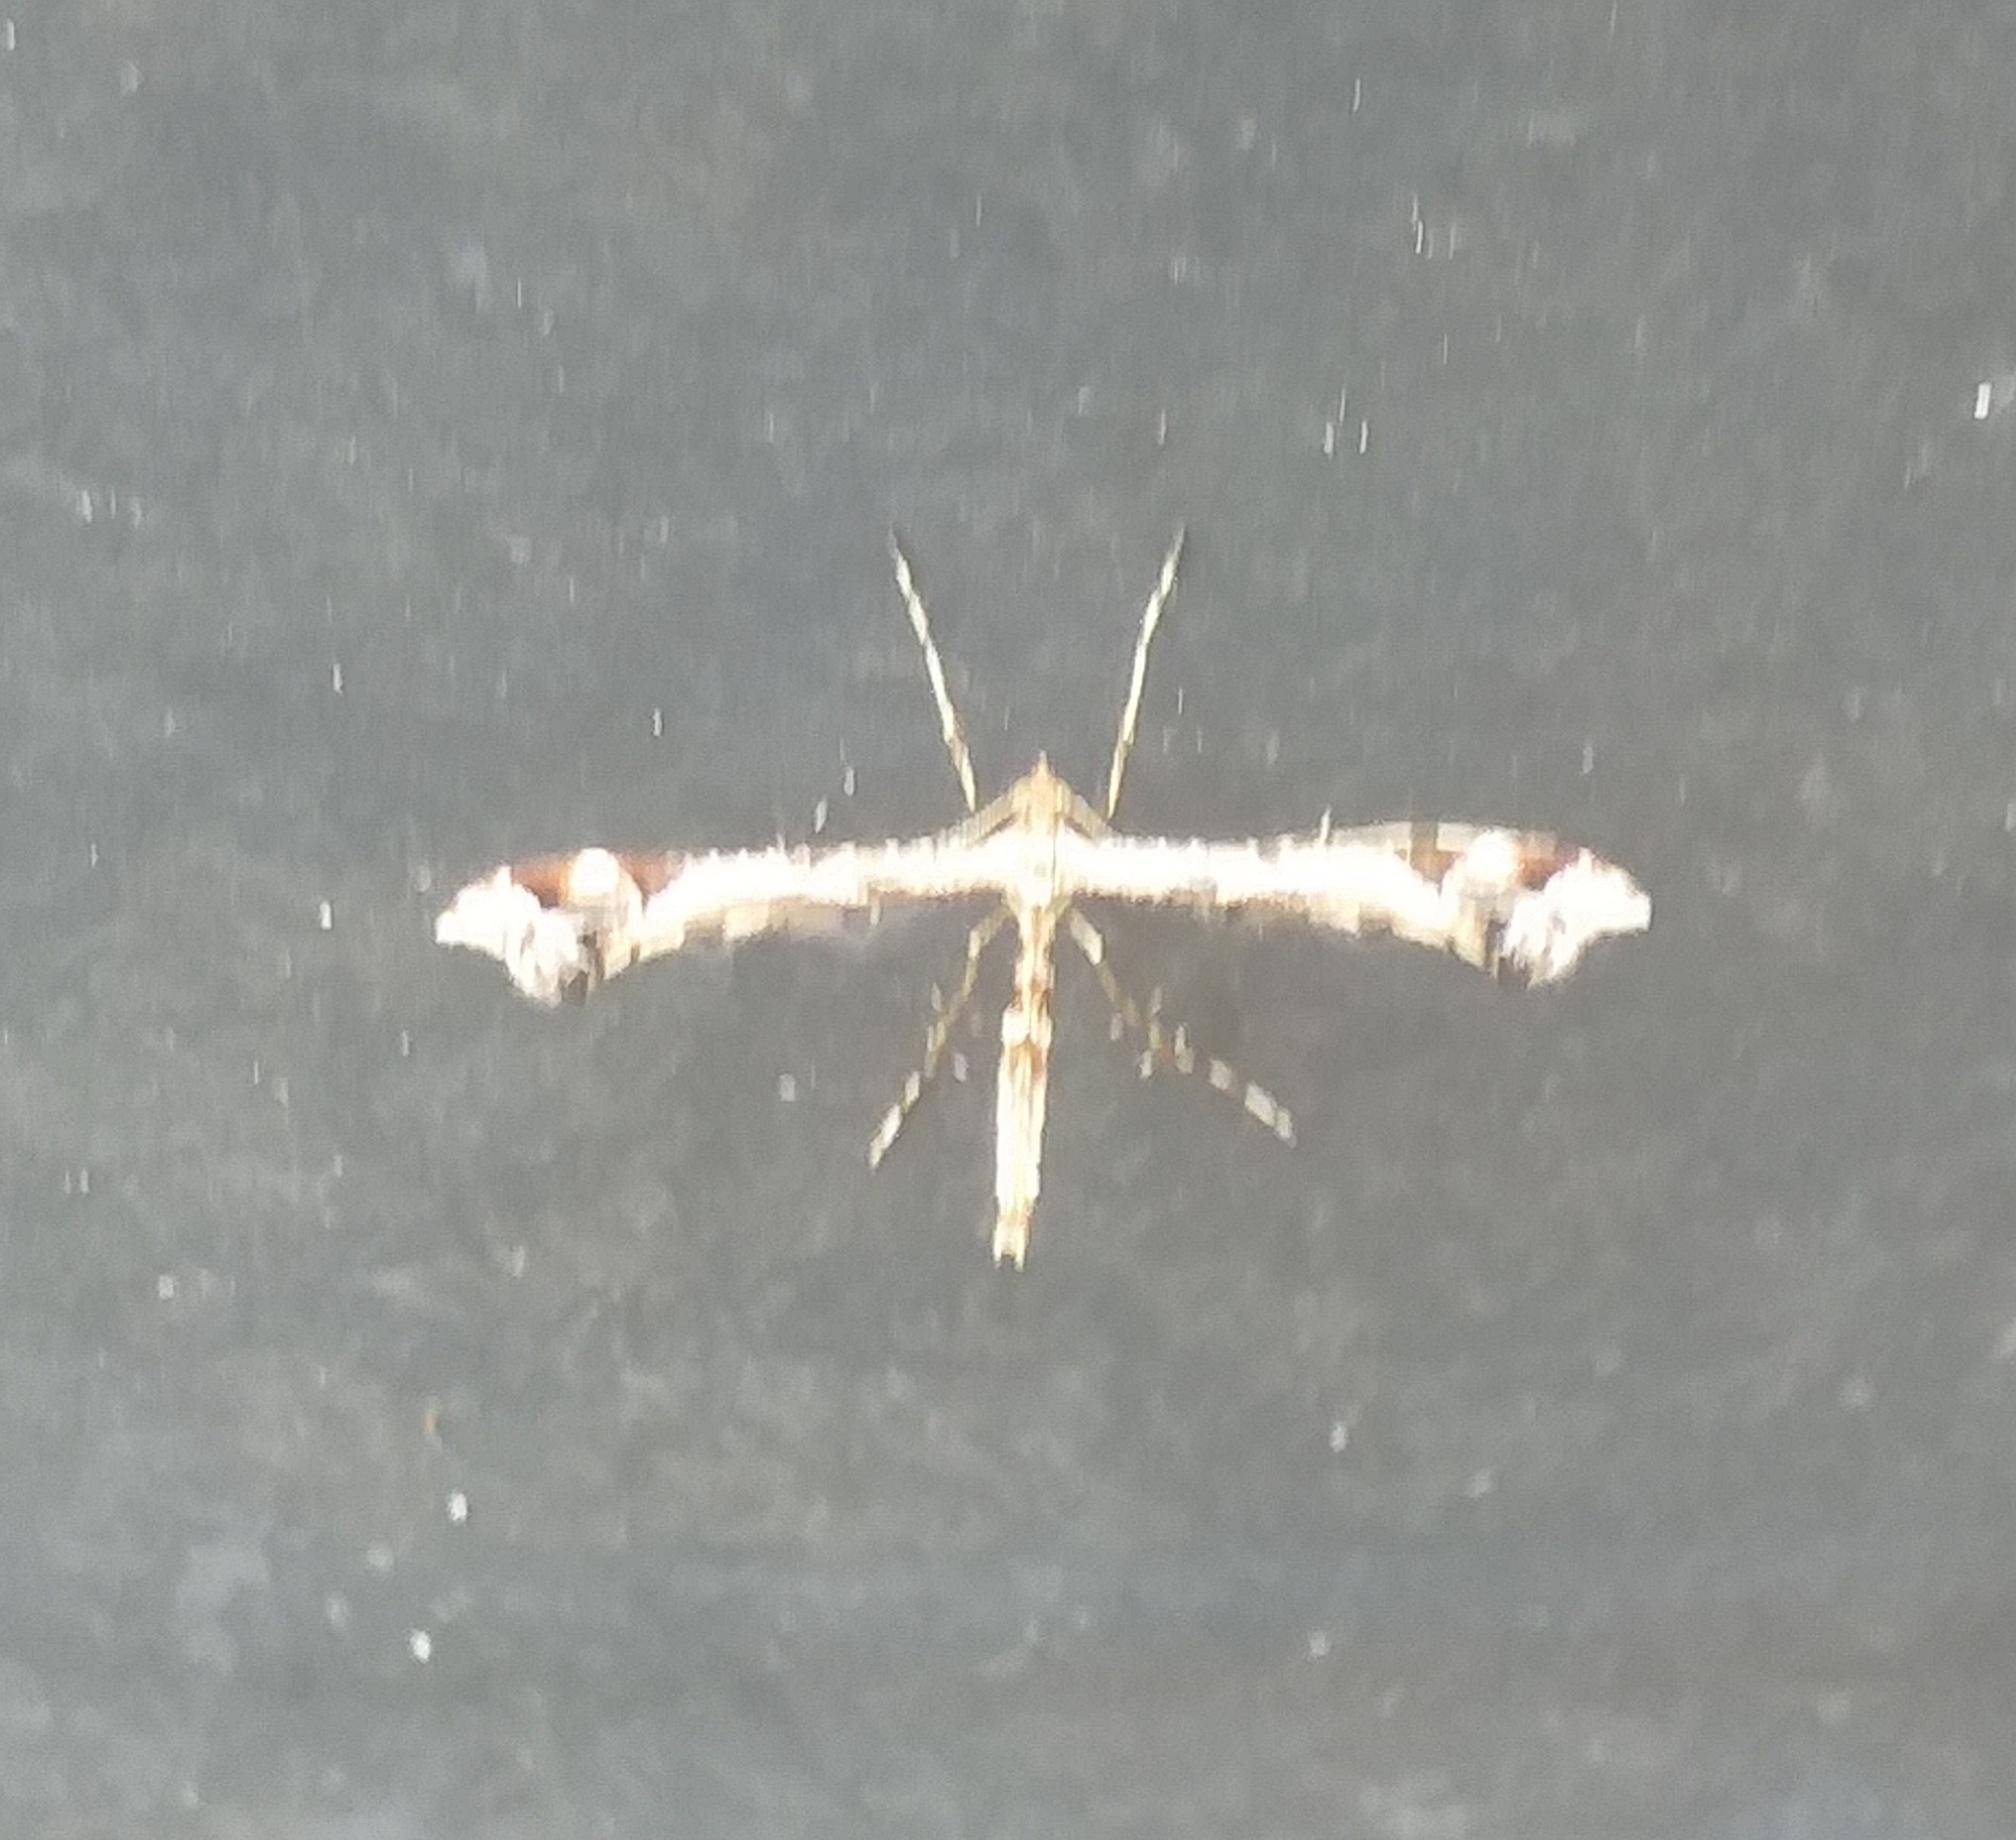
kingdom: Animalia
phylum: Arthropoda
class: Insecta
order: Lepidoptera
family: Pterophoridae
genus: Amblyptilia
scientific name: Amblyptilia acanthadactyla
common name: Beautiful plume
